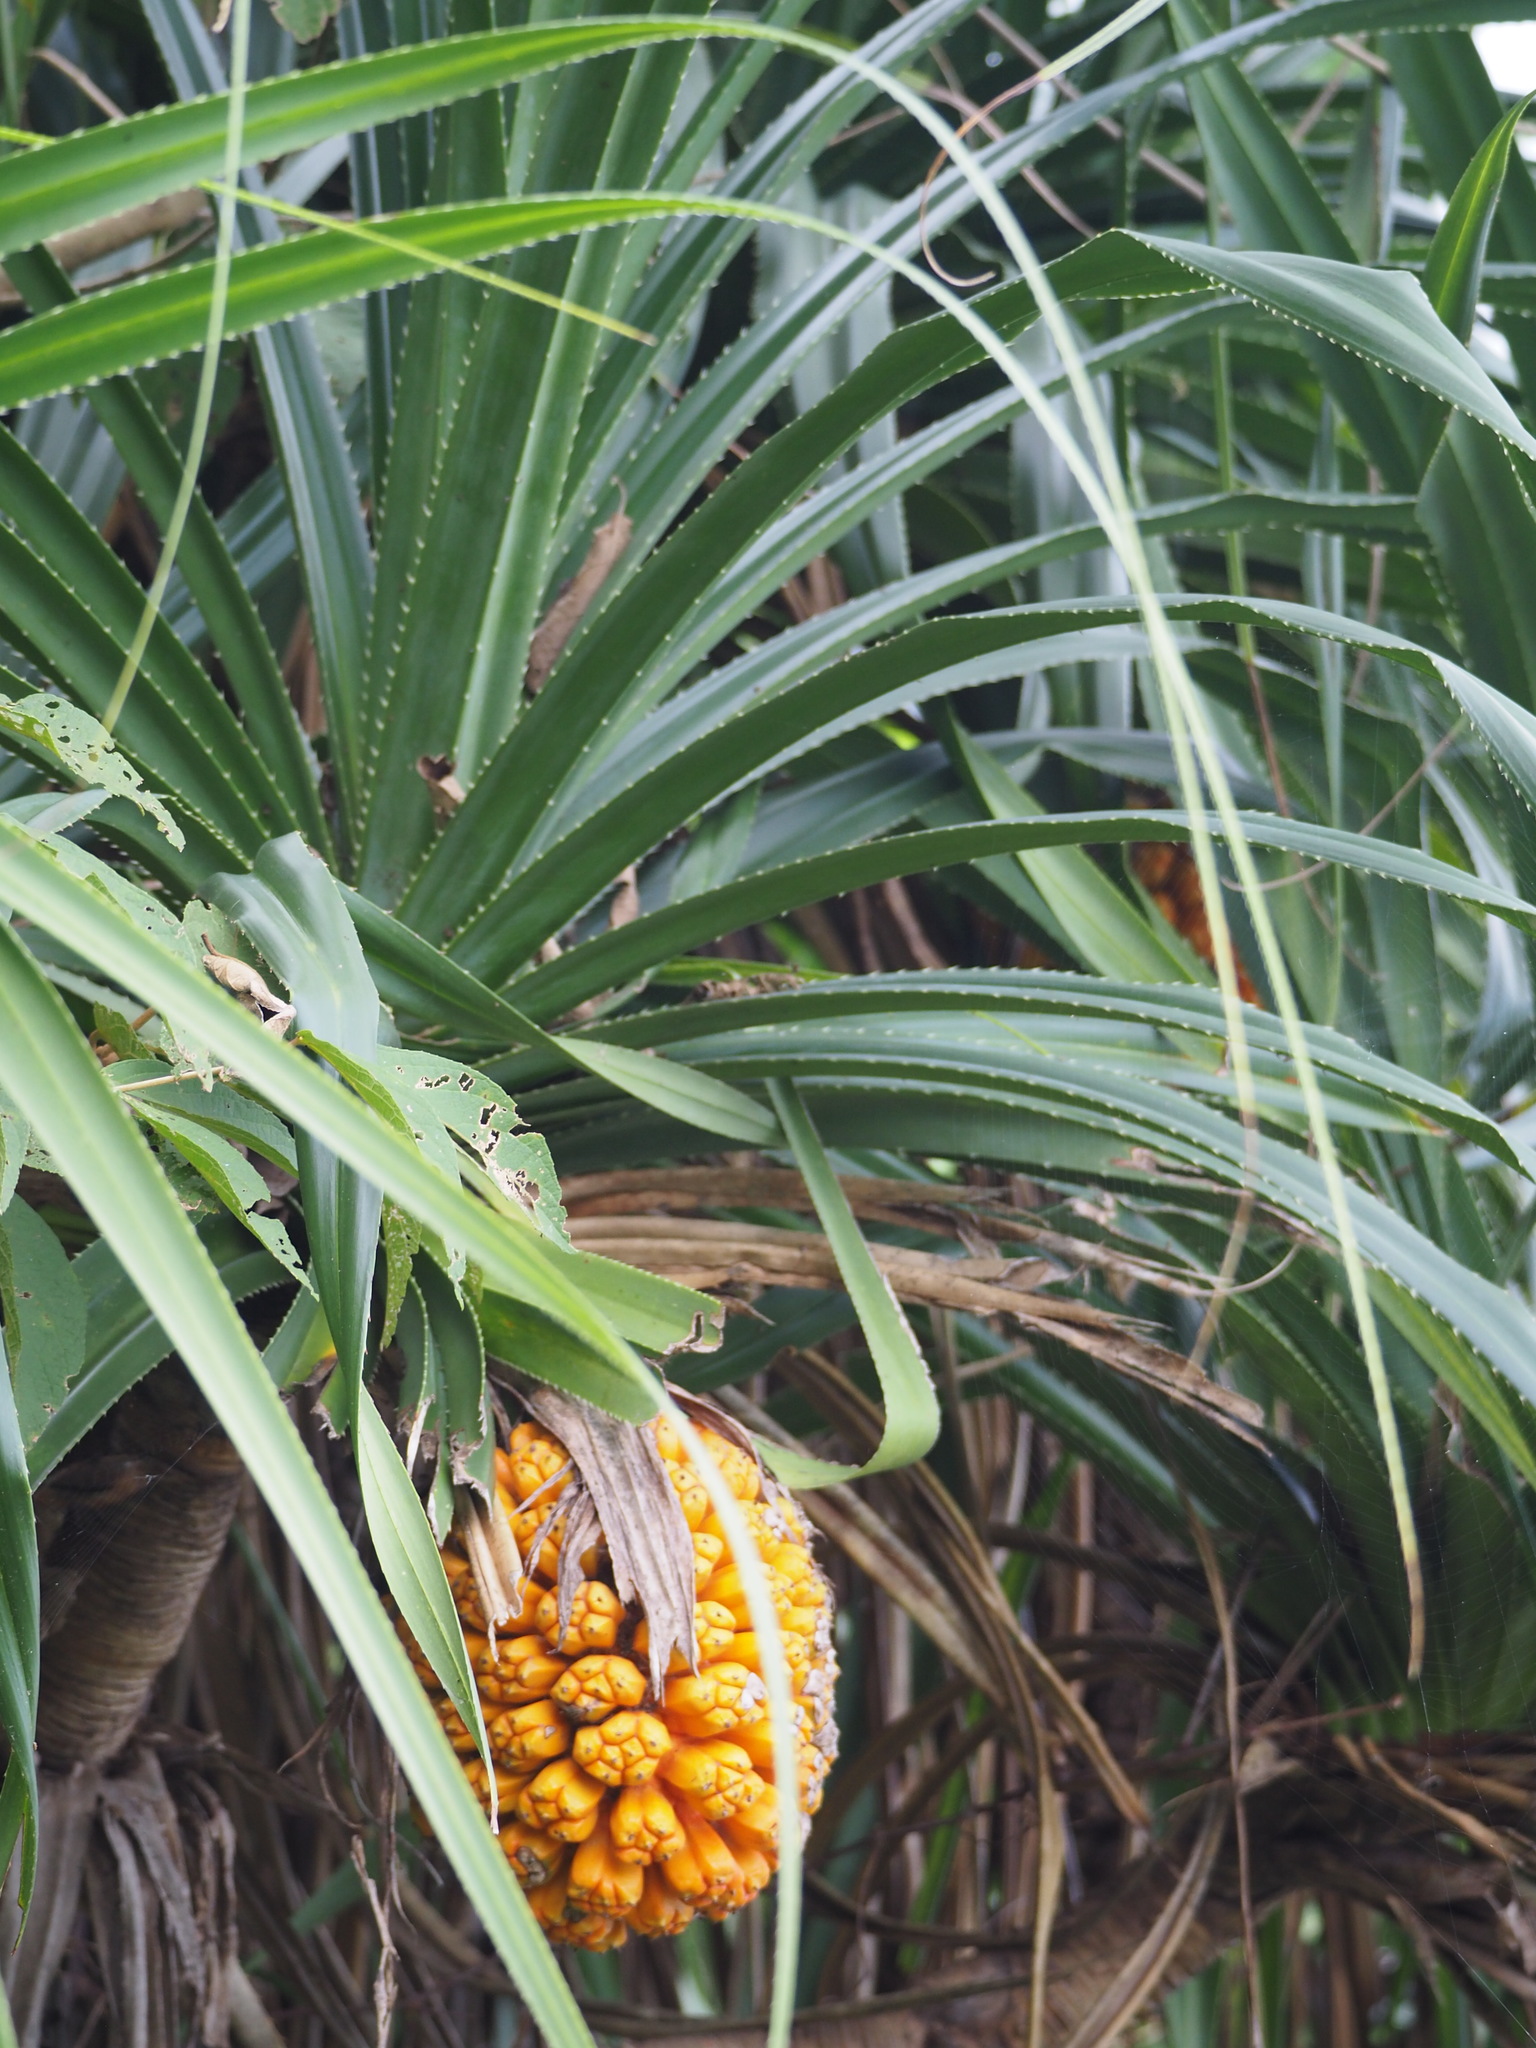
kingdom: Plantae
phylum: Tracheophyta
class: Liliopsida
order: Pandanales
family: Pandanaceae
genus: Pandanus
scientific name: Pandanus odorifer
